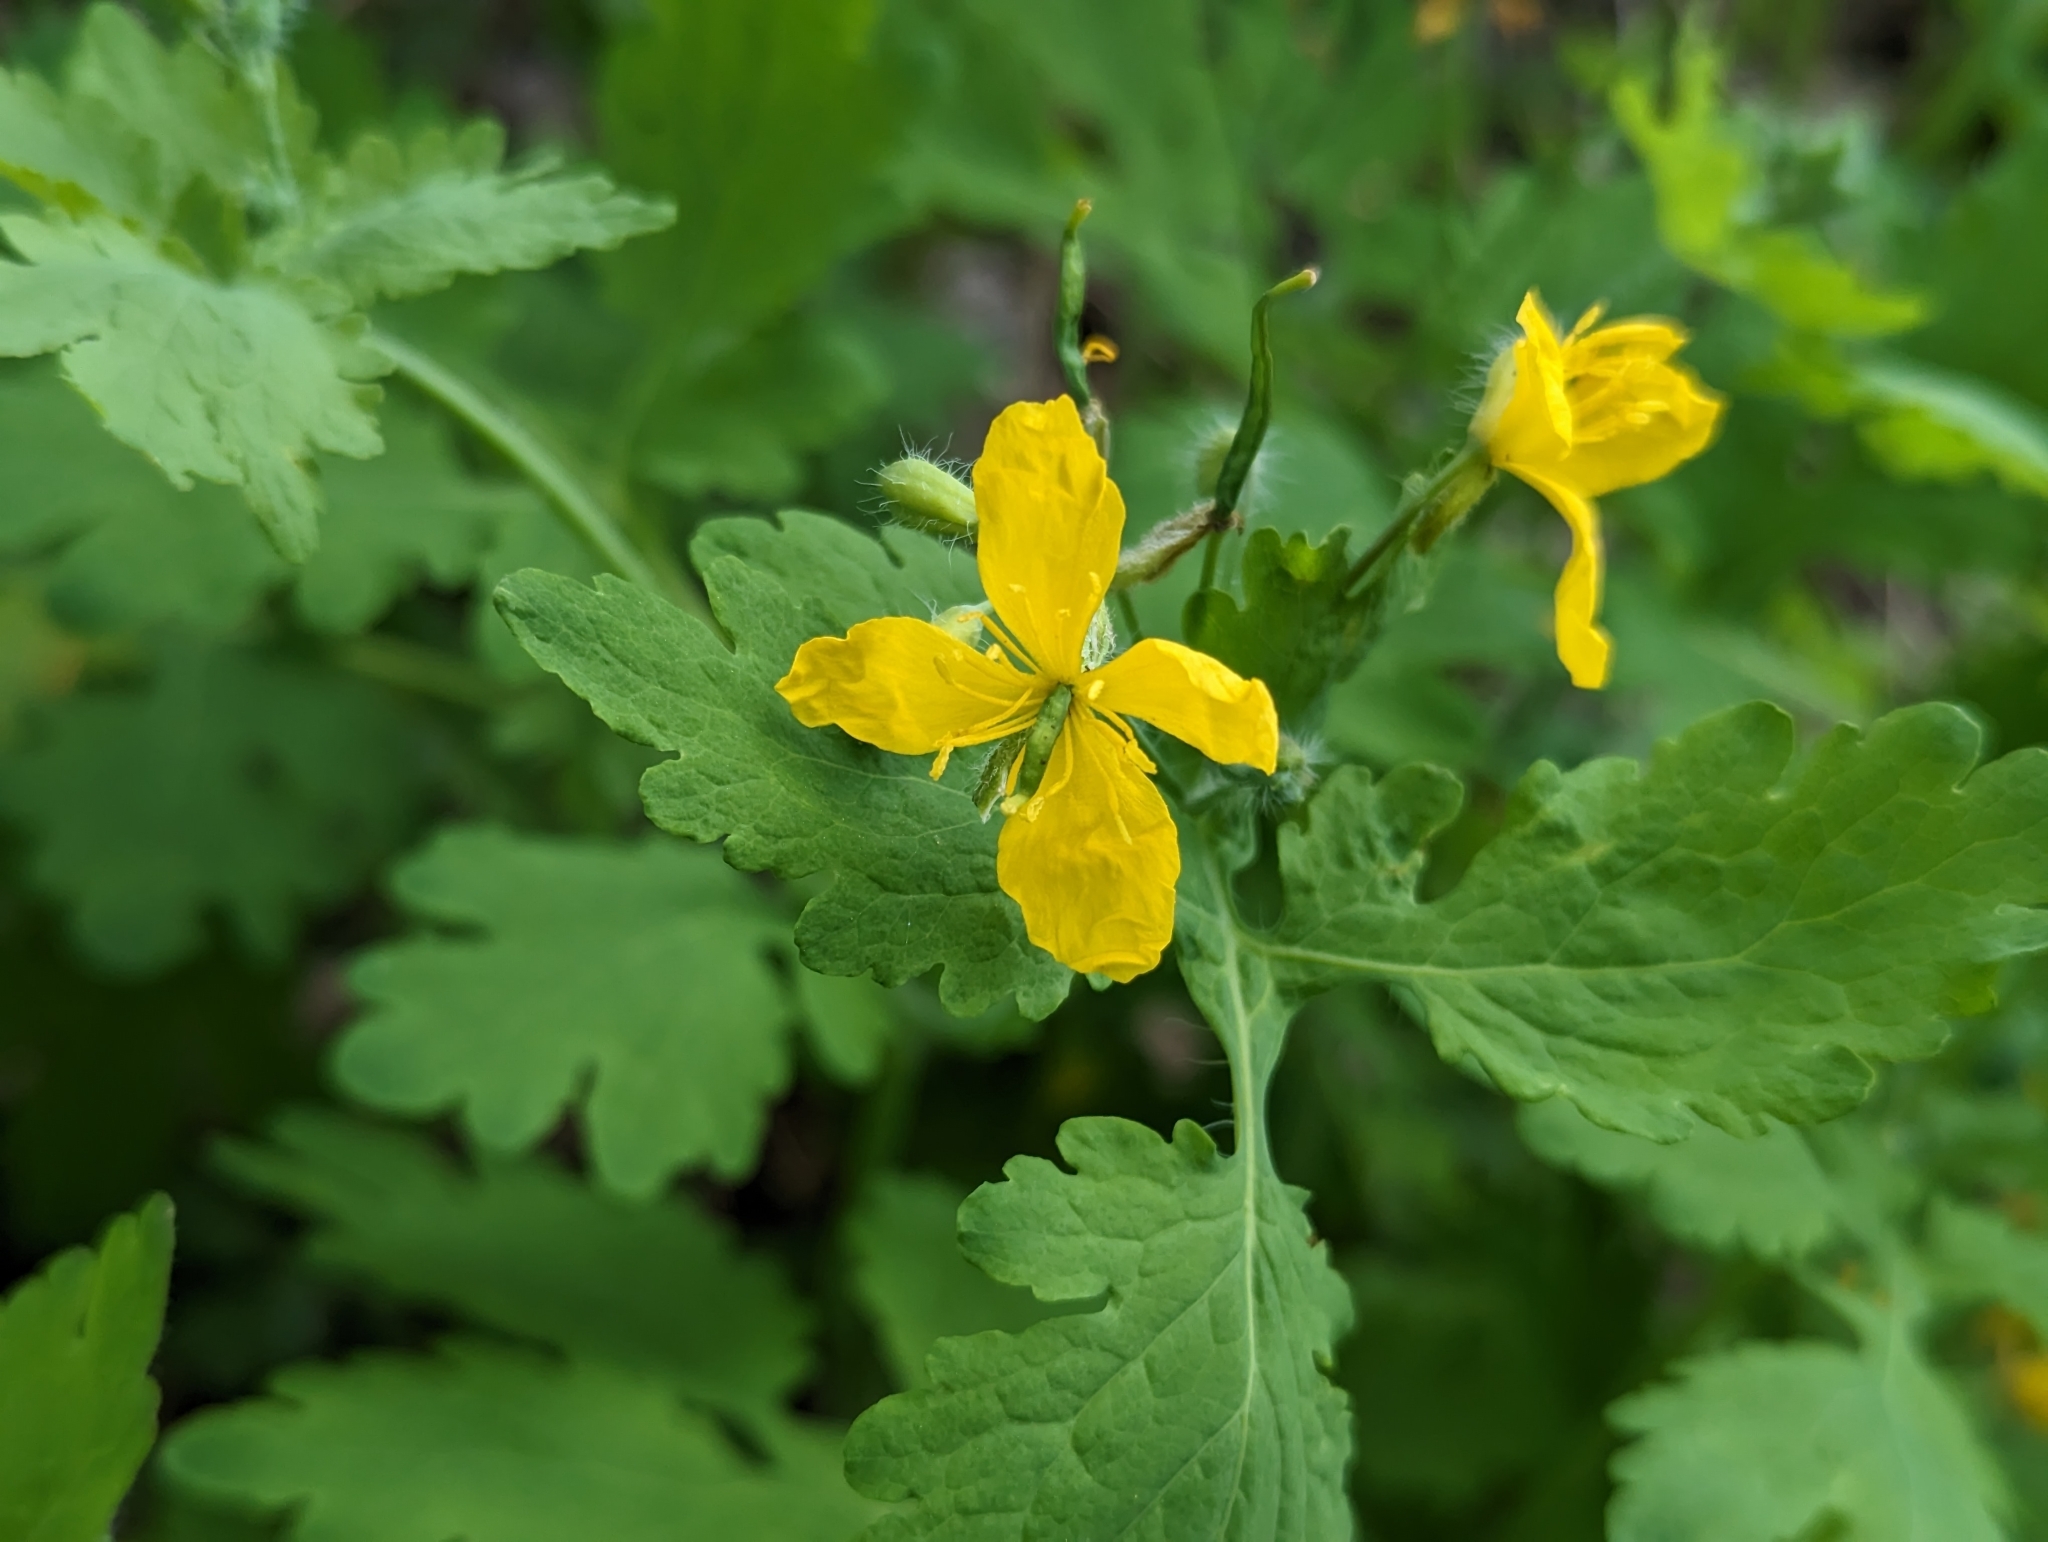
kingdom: Plantae
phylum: Tracheophyta
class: Magnoliopsida
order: Ranunculales
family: Papaveraceae
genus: Chelidonium
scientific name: Chelidonium majus
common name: Greater celandine
